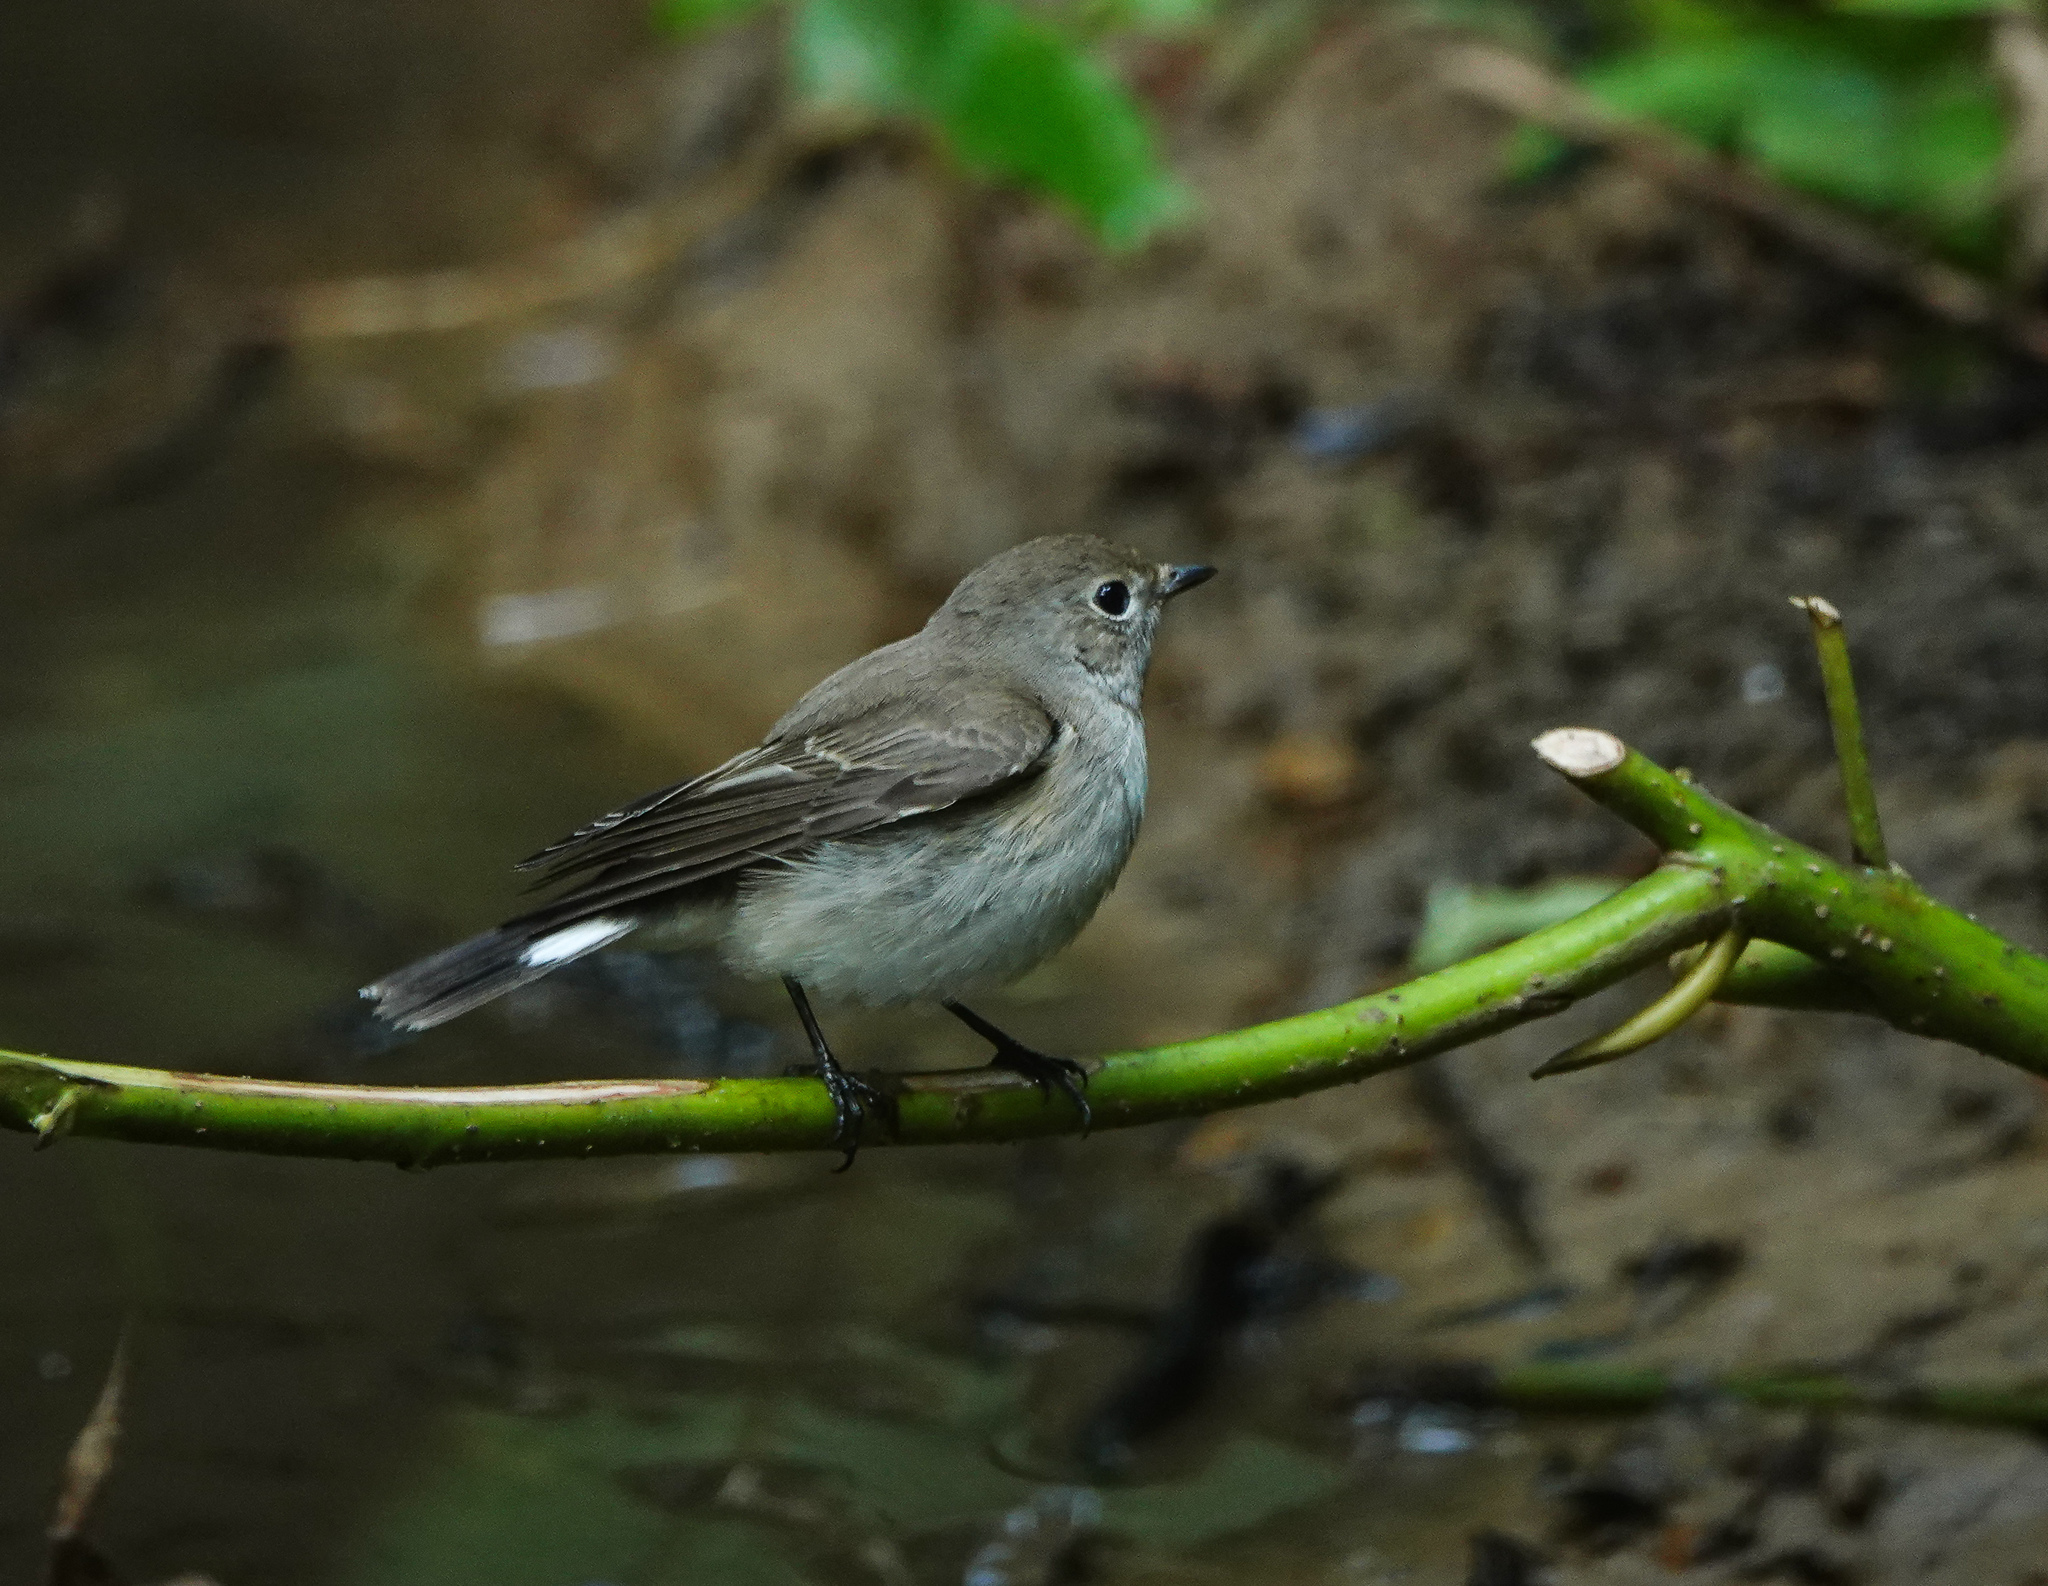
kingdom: Animalia
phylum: Chordata
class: Aves
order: Passeriformes
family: Muscicapidae
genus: Ficedula
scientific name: Ficedula westermanni
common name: Little pied flycatcher
